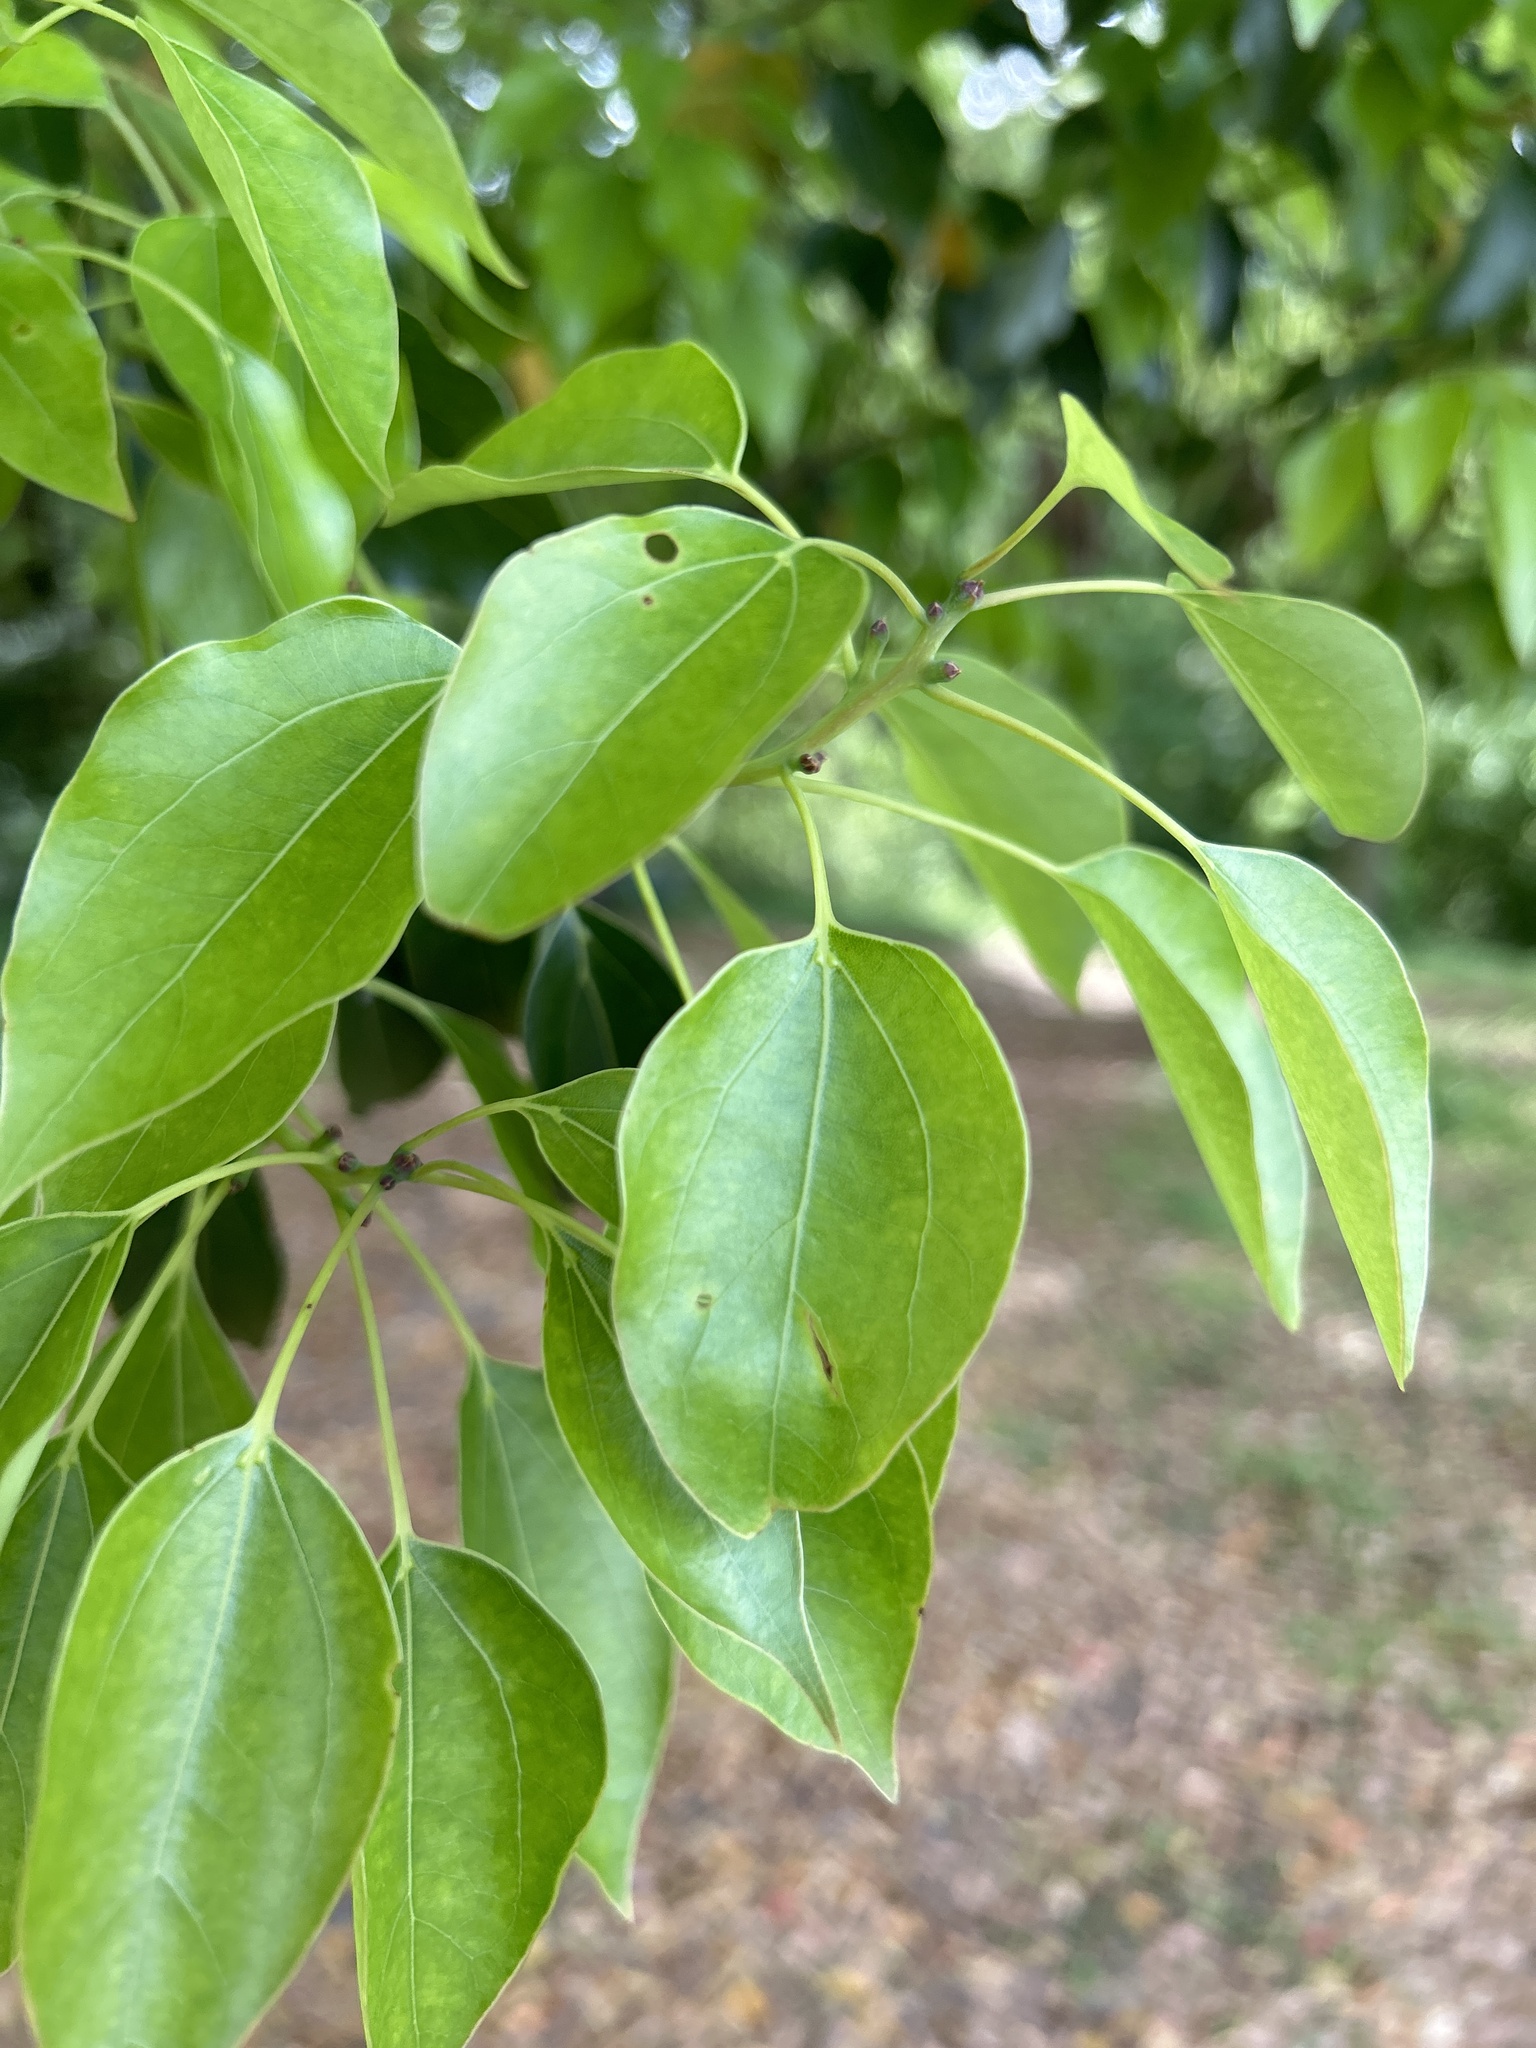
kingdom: Plantae
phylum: Tracheophyta
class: Magnoliopsida
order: Laurales
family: Lauraceae
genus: Cinnamomum
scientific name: Cinnamomum camphora
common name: Camphortree
